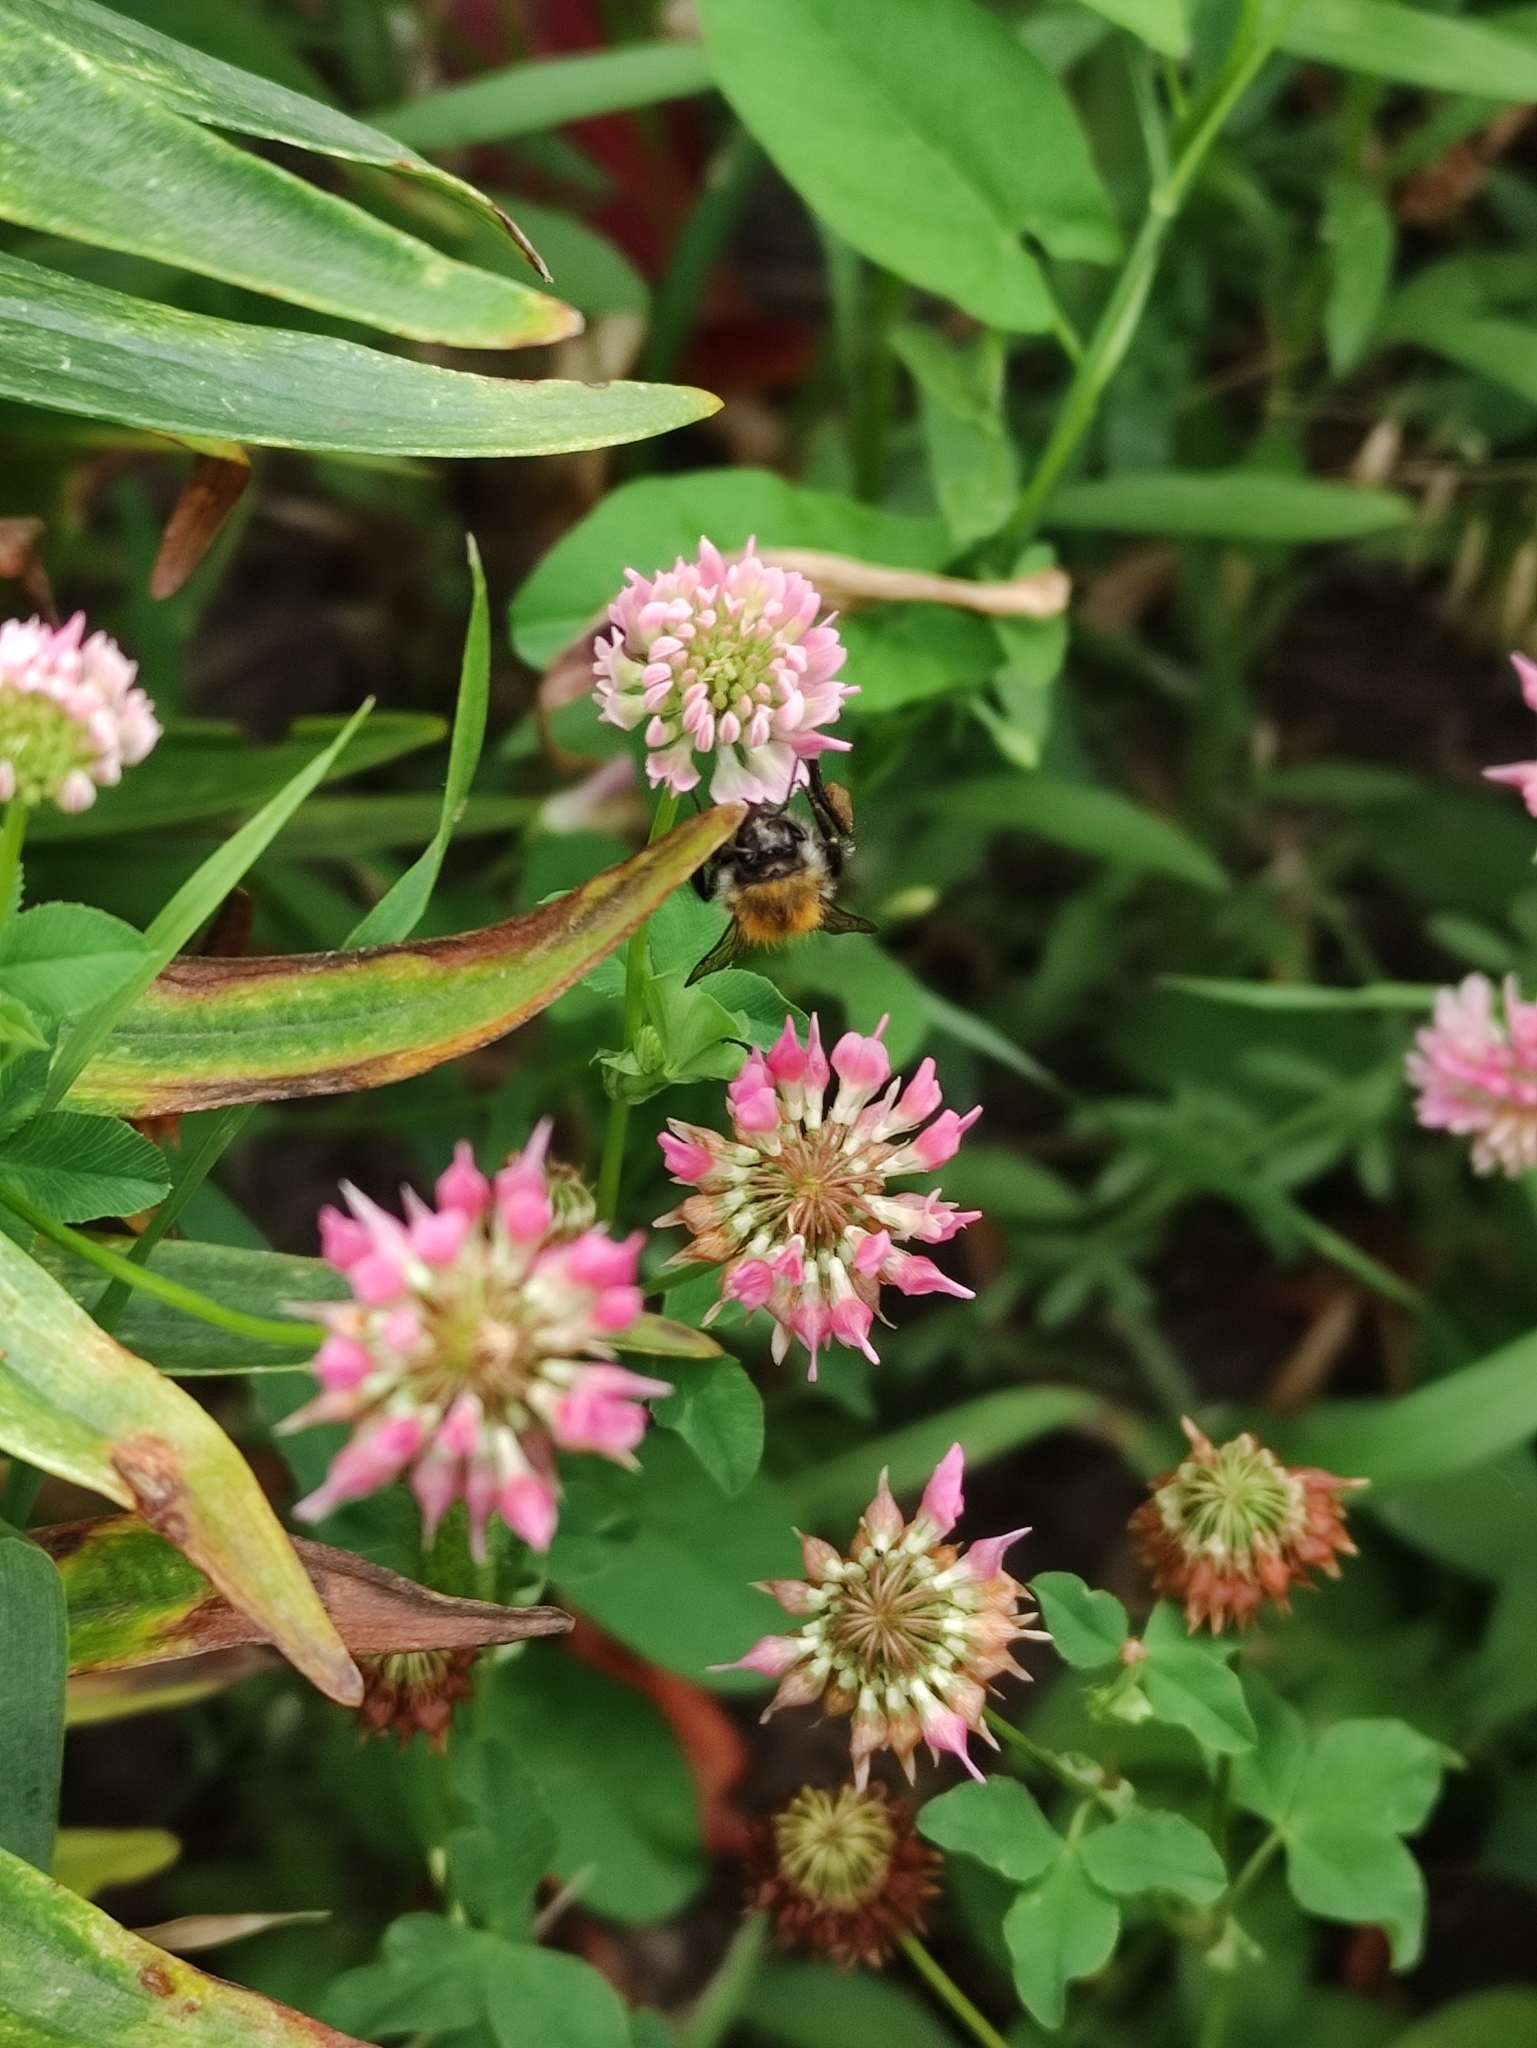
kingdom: Animalia
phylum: Arthropoda
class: Insecta
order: Hymenoptera
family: Apidae
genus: Bombus
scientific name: Bombus pascuorum
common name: Common carder bee
